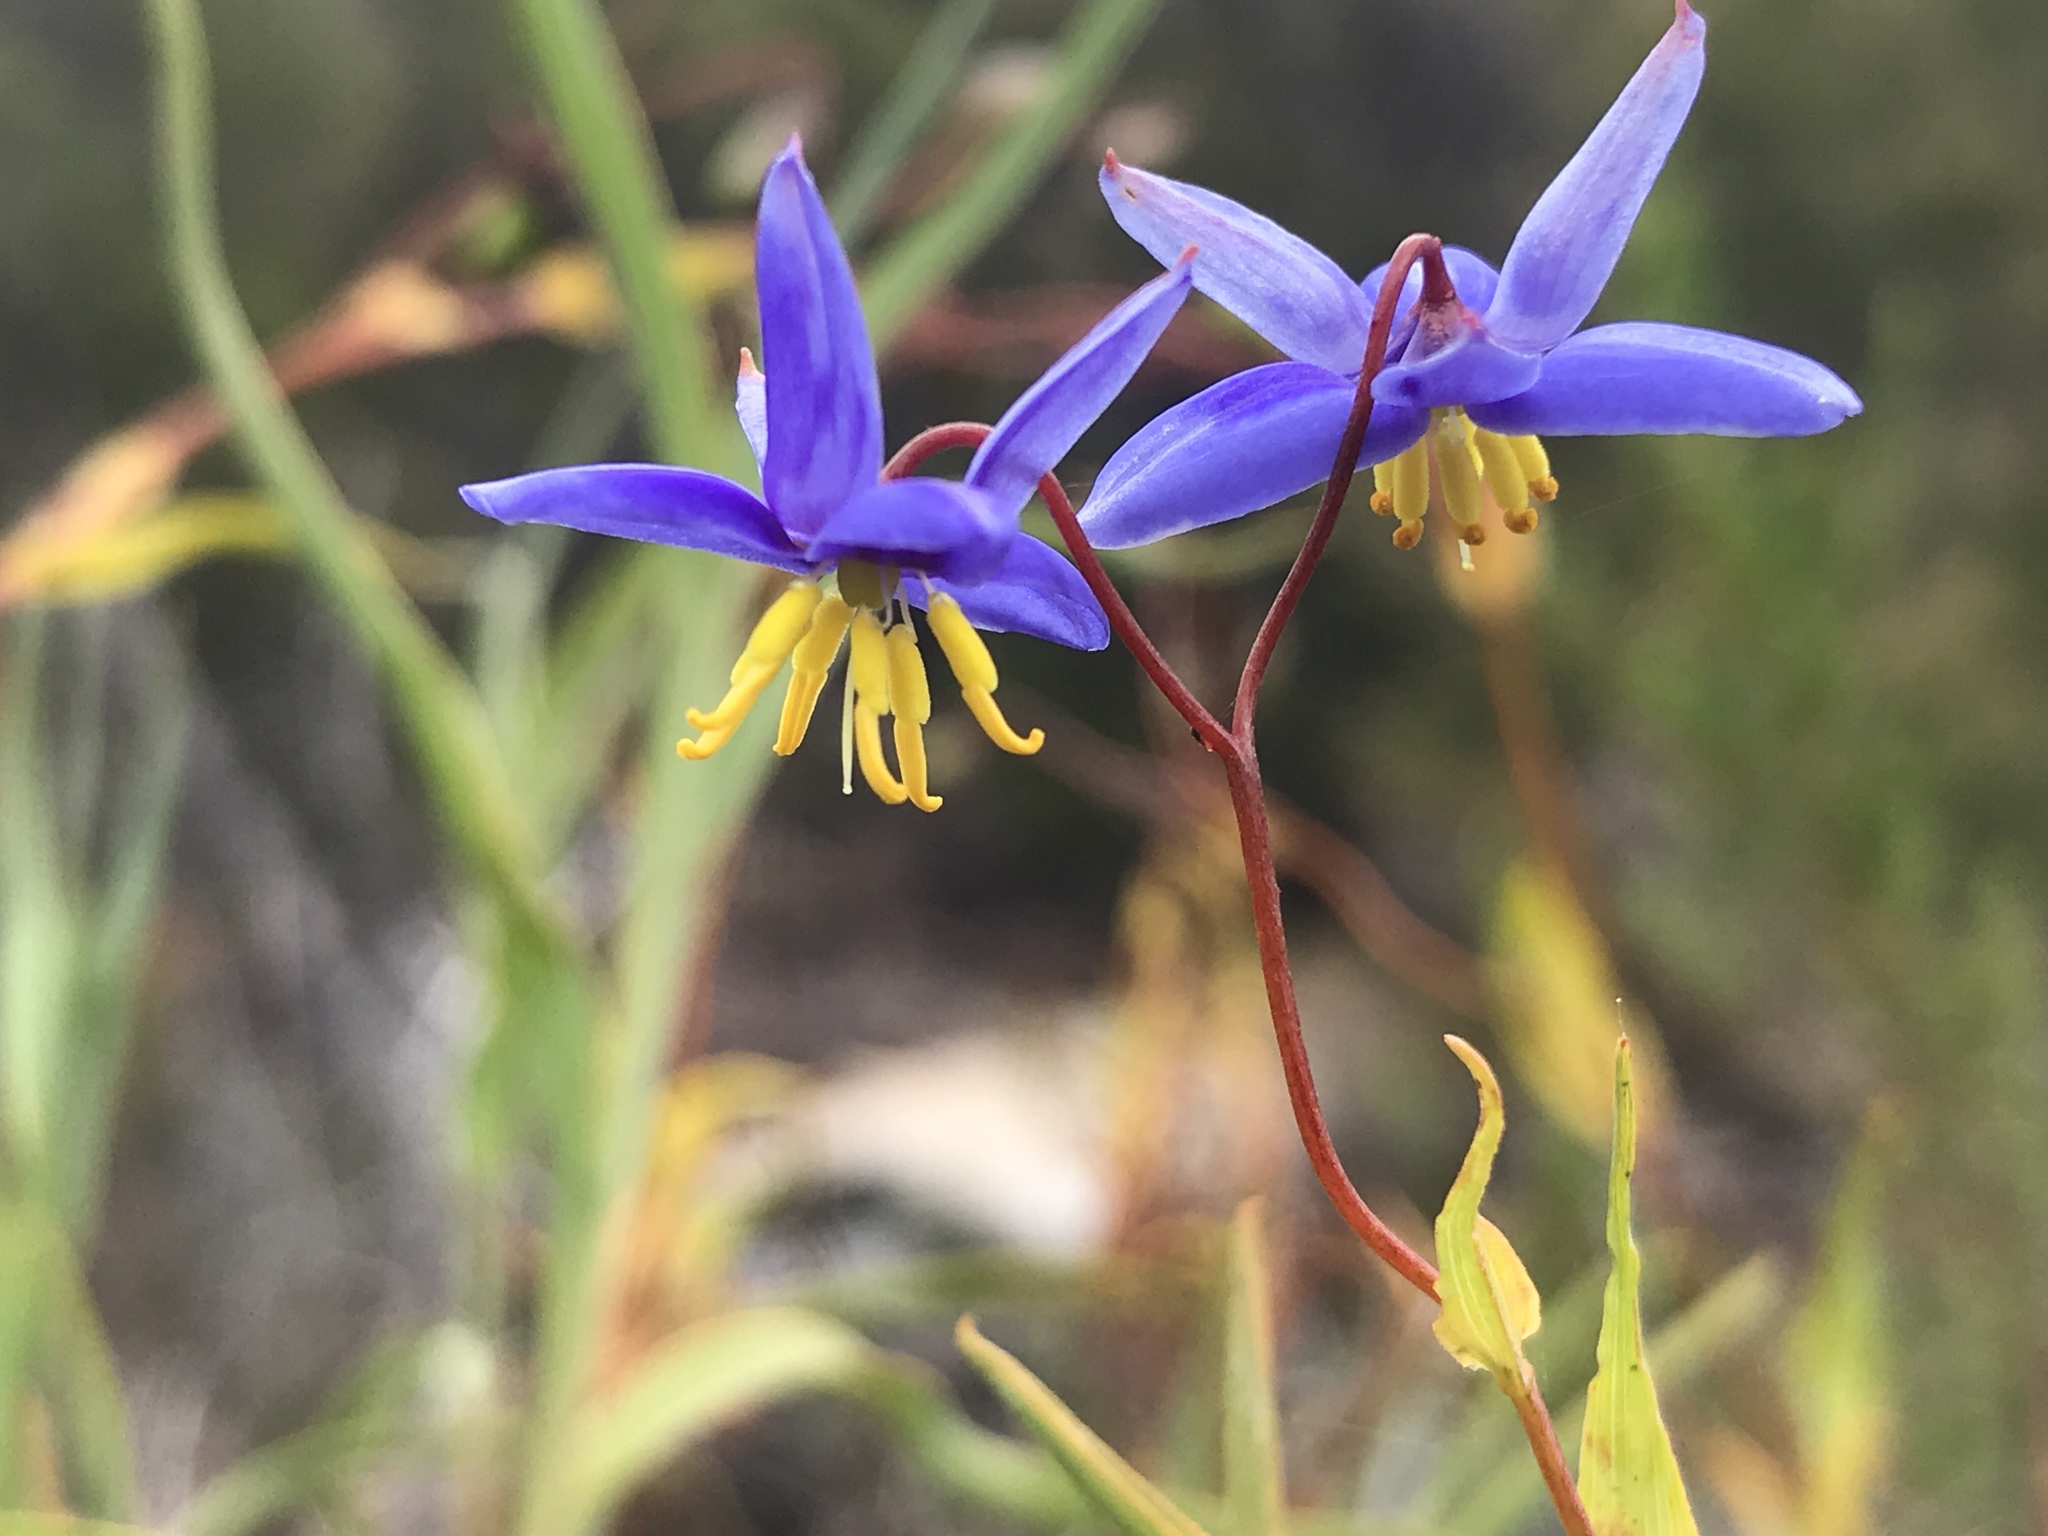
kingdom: Plantae
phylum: Tracheophyta
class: Liliopsida
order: Asparagales
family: Asphodelaceae
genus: Stypandra
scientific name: Stypandra glauca
